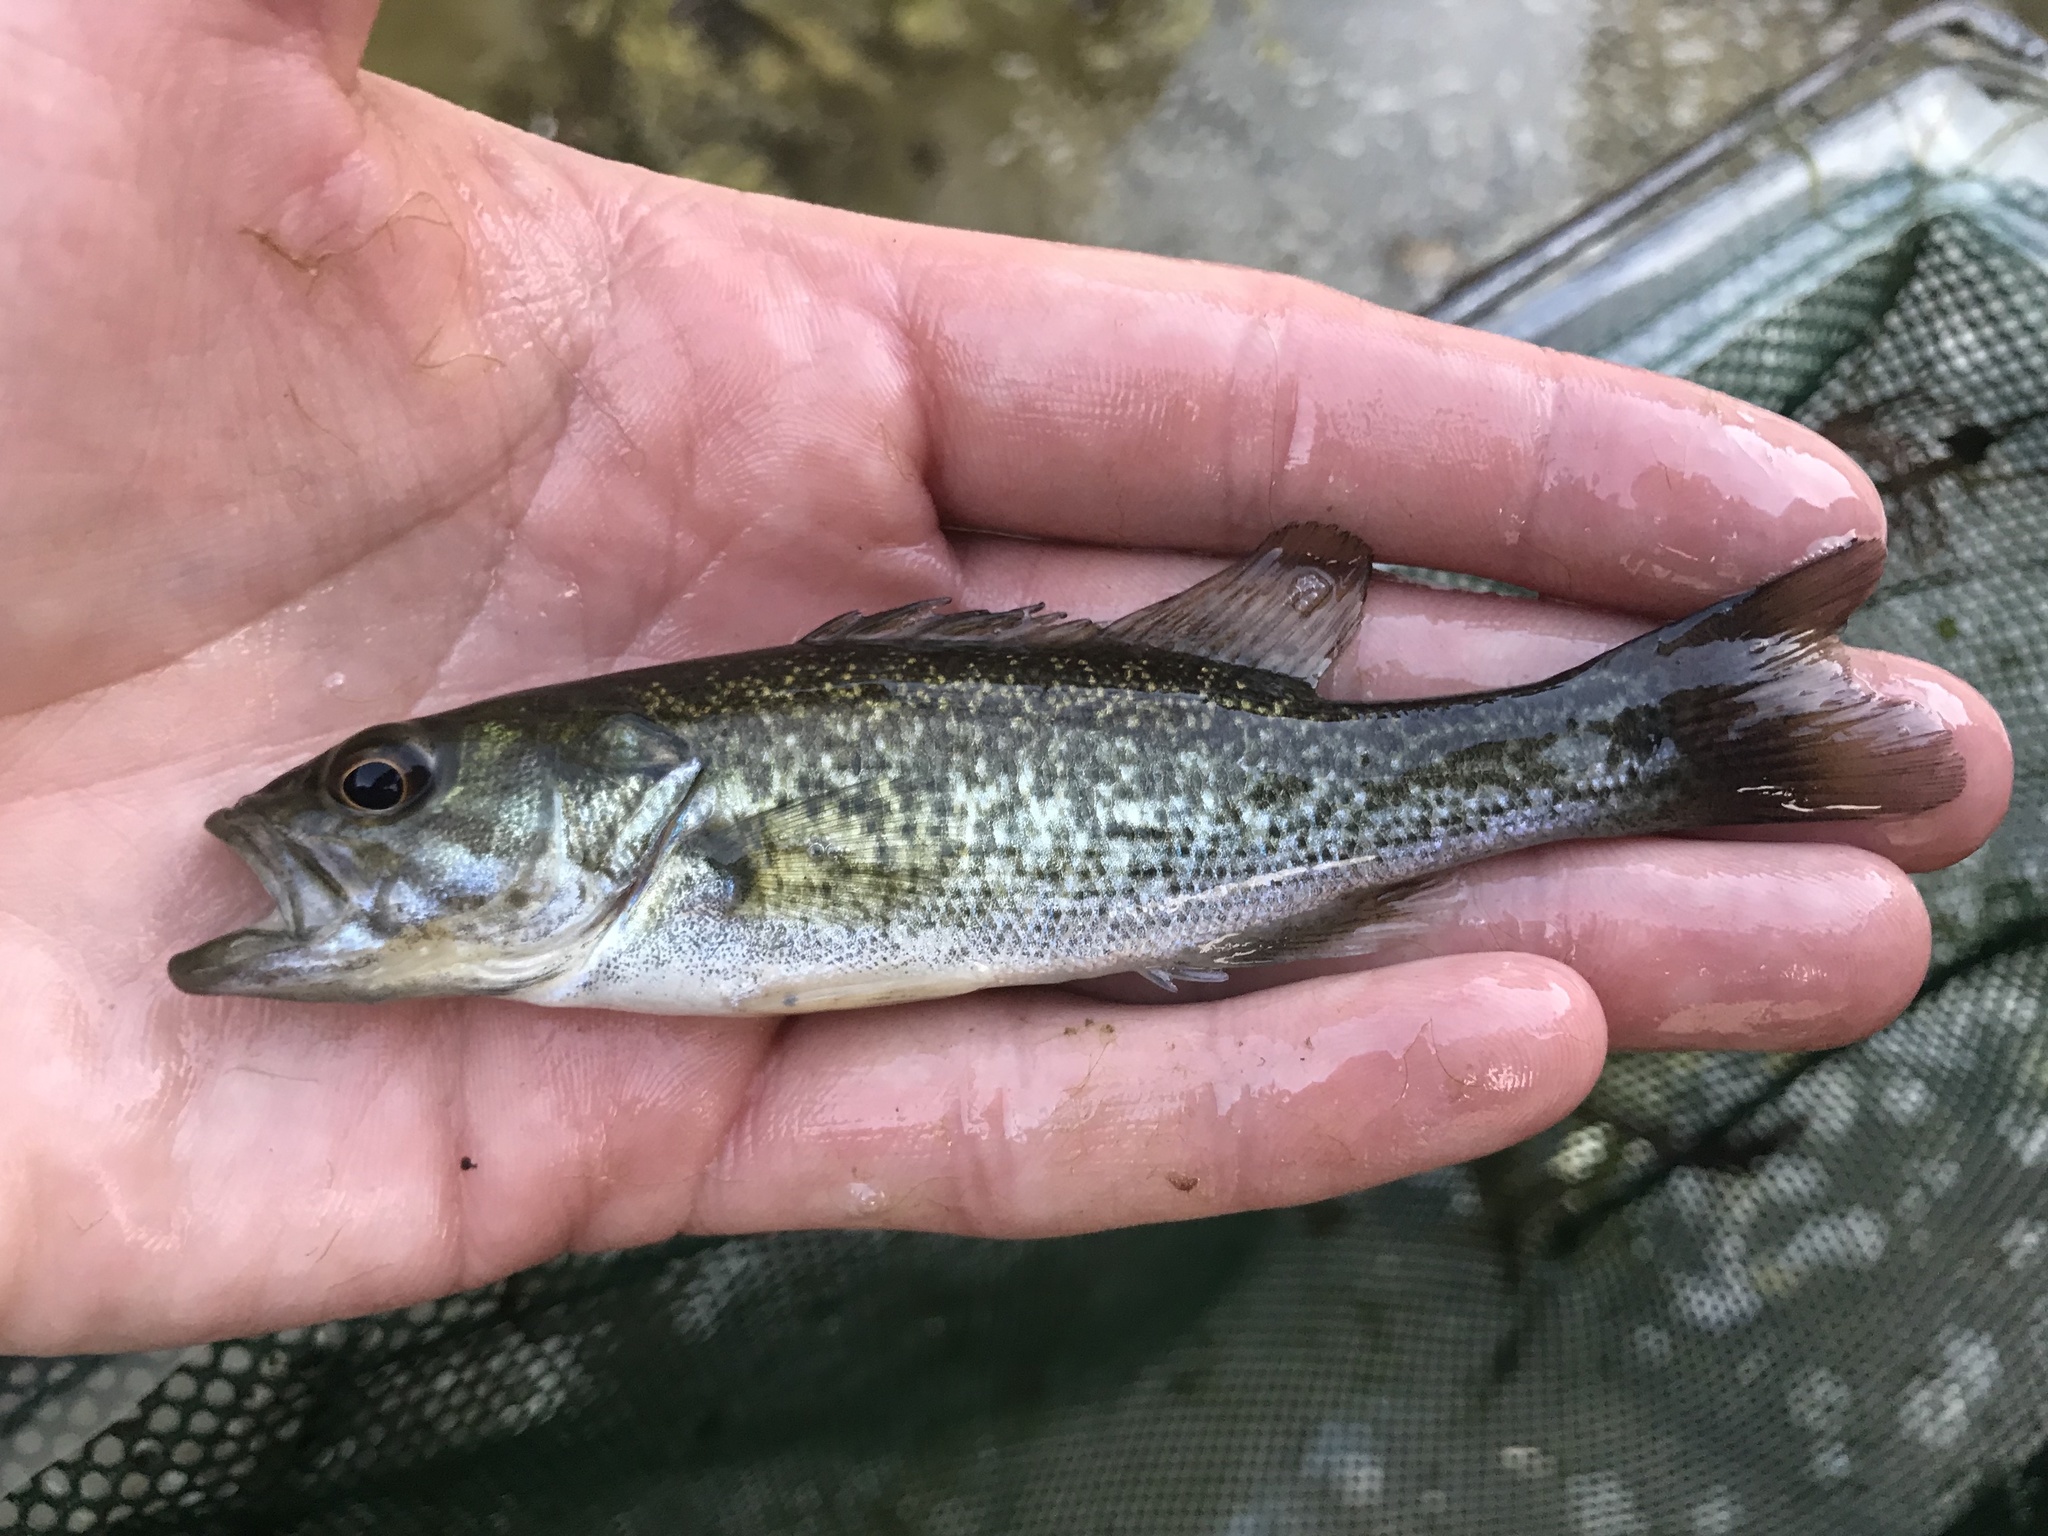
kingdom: Animalia
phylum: Chordata
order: Perciformes
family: Centrarchidae
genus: Micropterus
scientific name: Micropterus treculii
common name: Guadalupe bass
